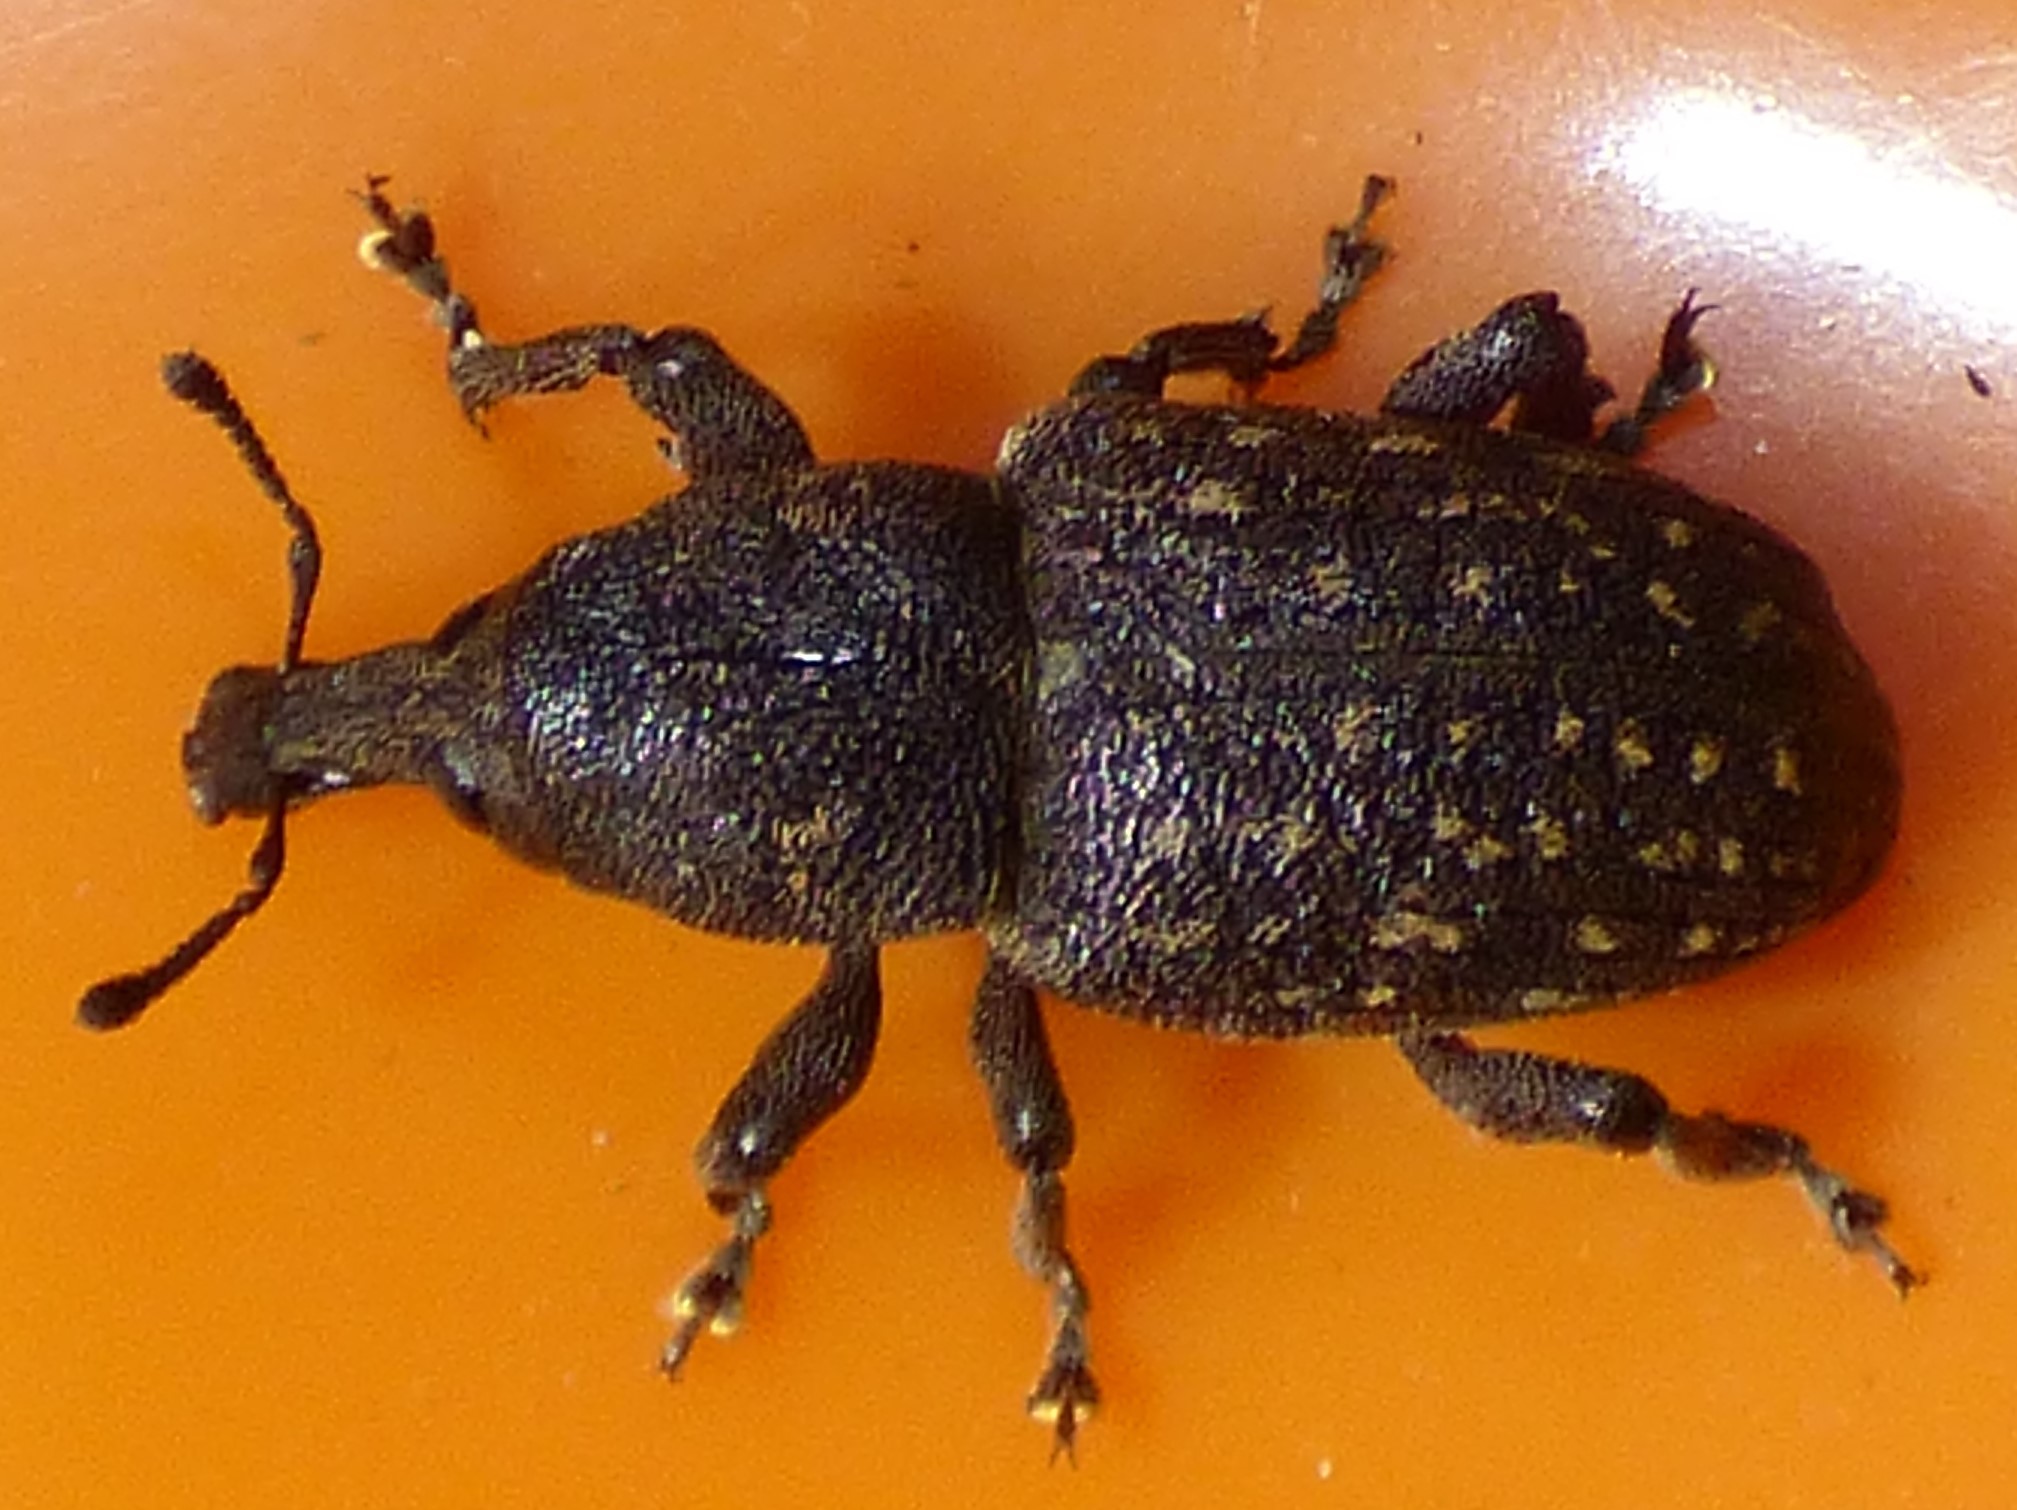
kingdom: Animalia
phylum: Arthropoda
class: Insecta
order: Coleoptera
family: Curculionidae
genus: Pachylobius
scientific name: Pachylobius picivorus
